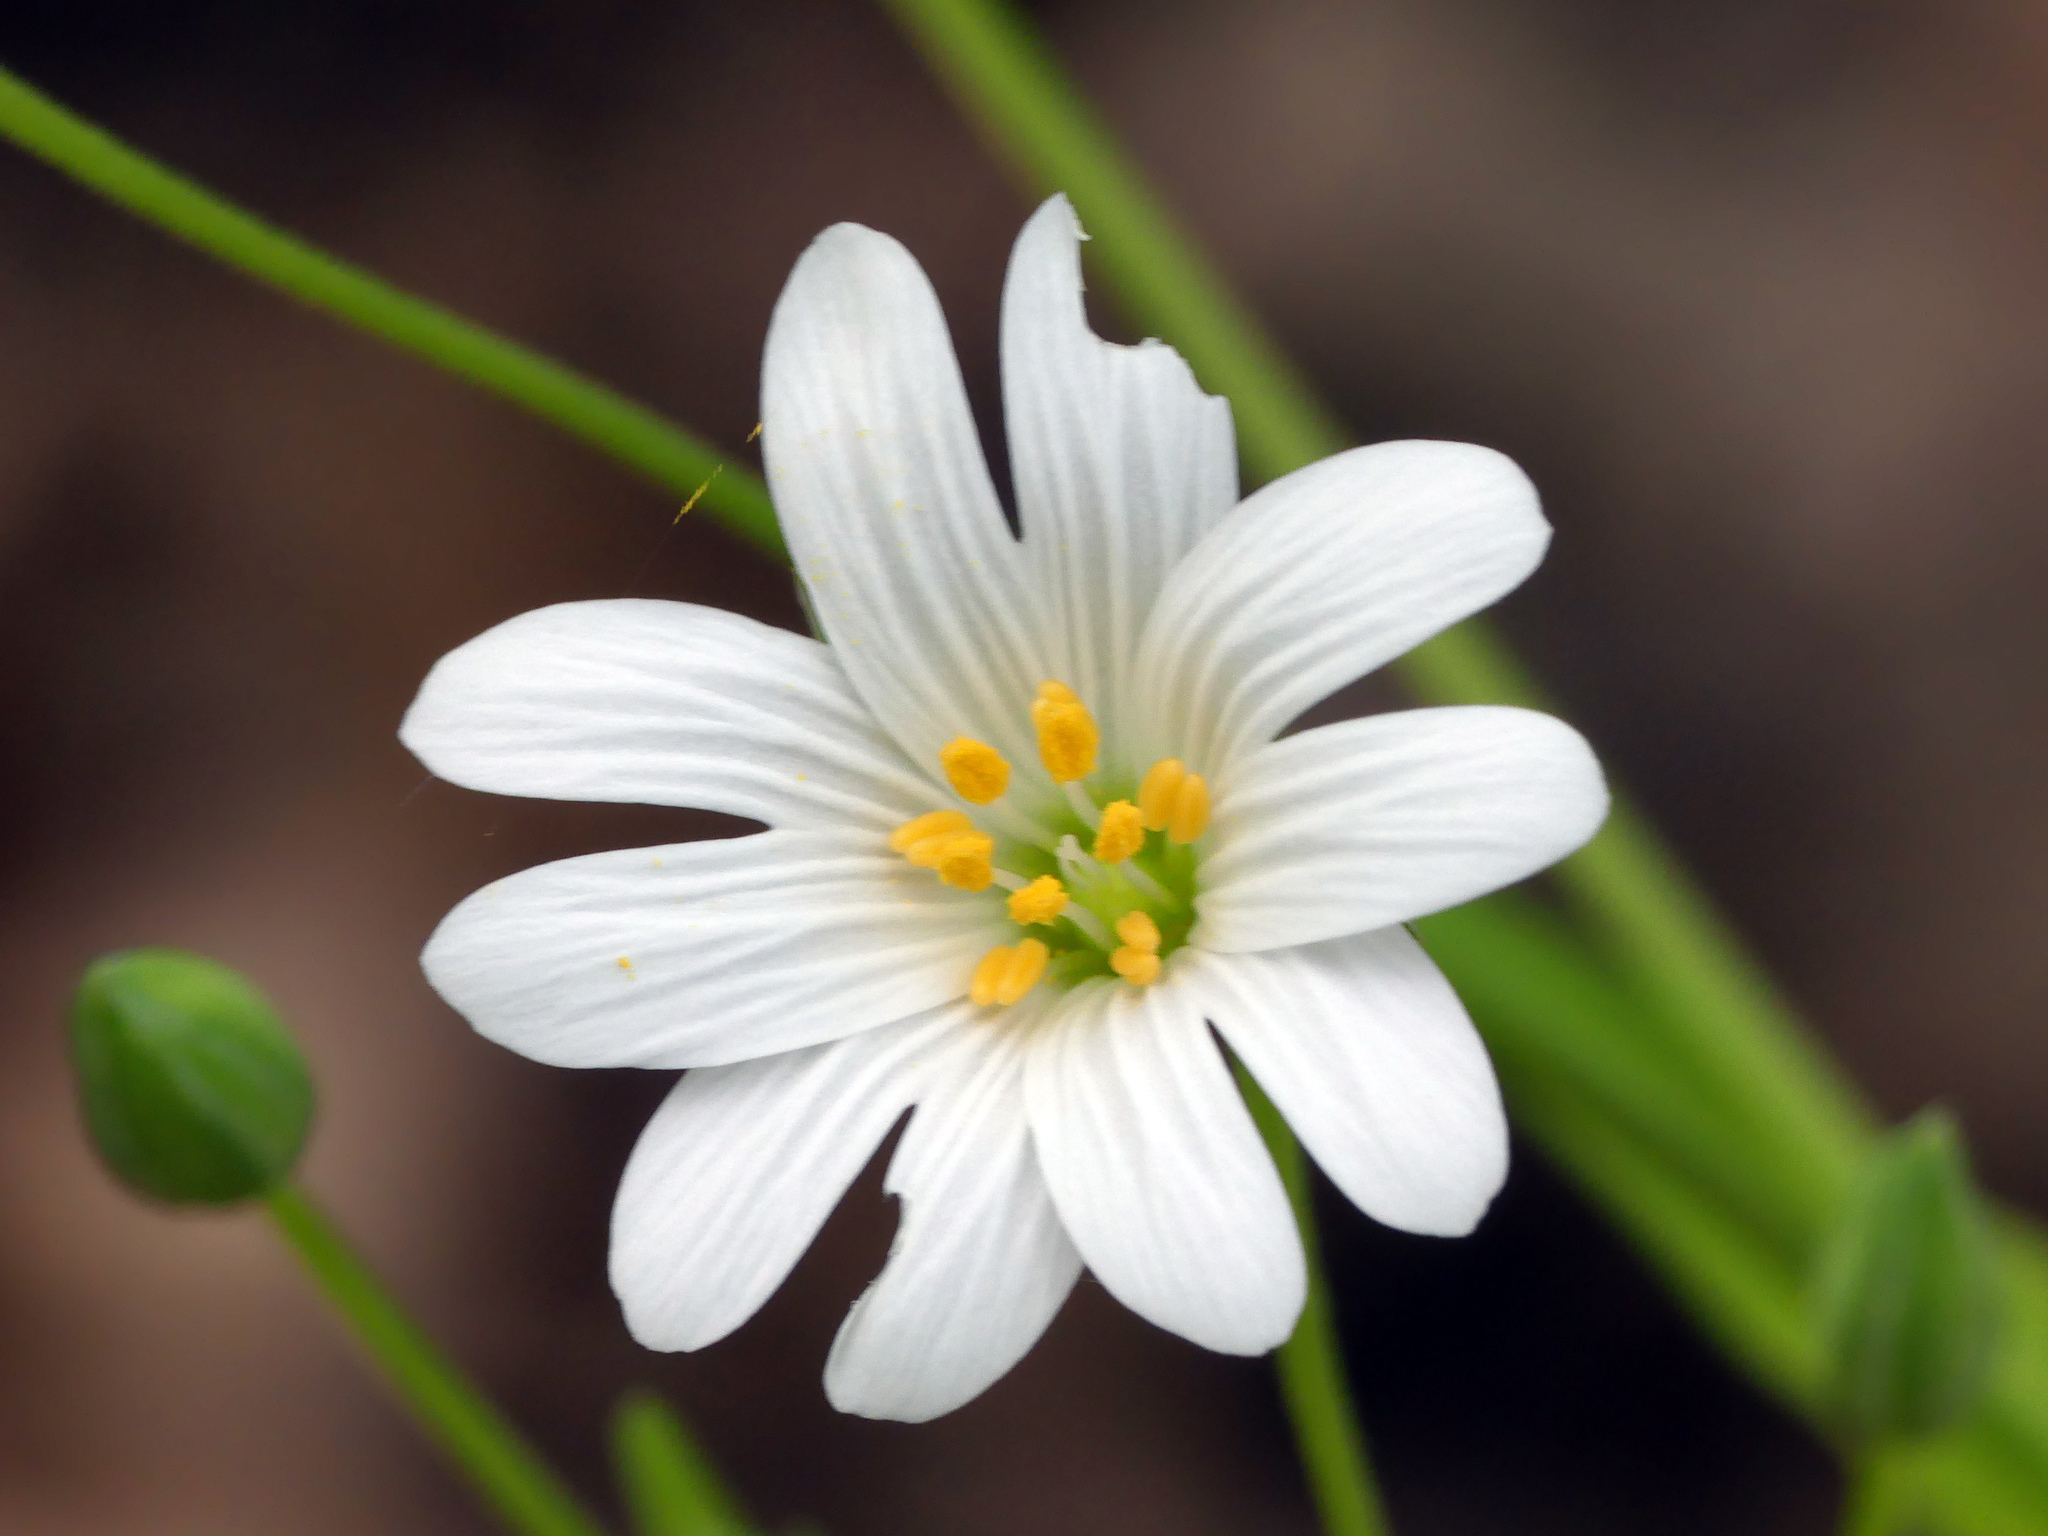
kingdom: Plantae
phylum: Tracheophyta
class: Magnoliopsida
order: Caryophyllales
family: Caryophyllaceae
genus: Rabelera
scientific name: Rabelera holostea
